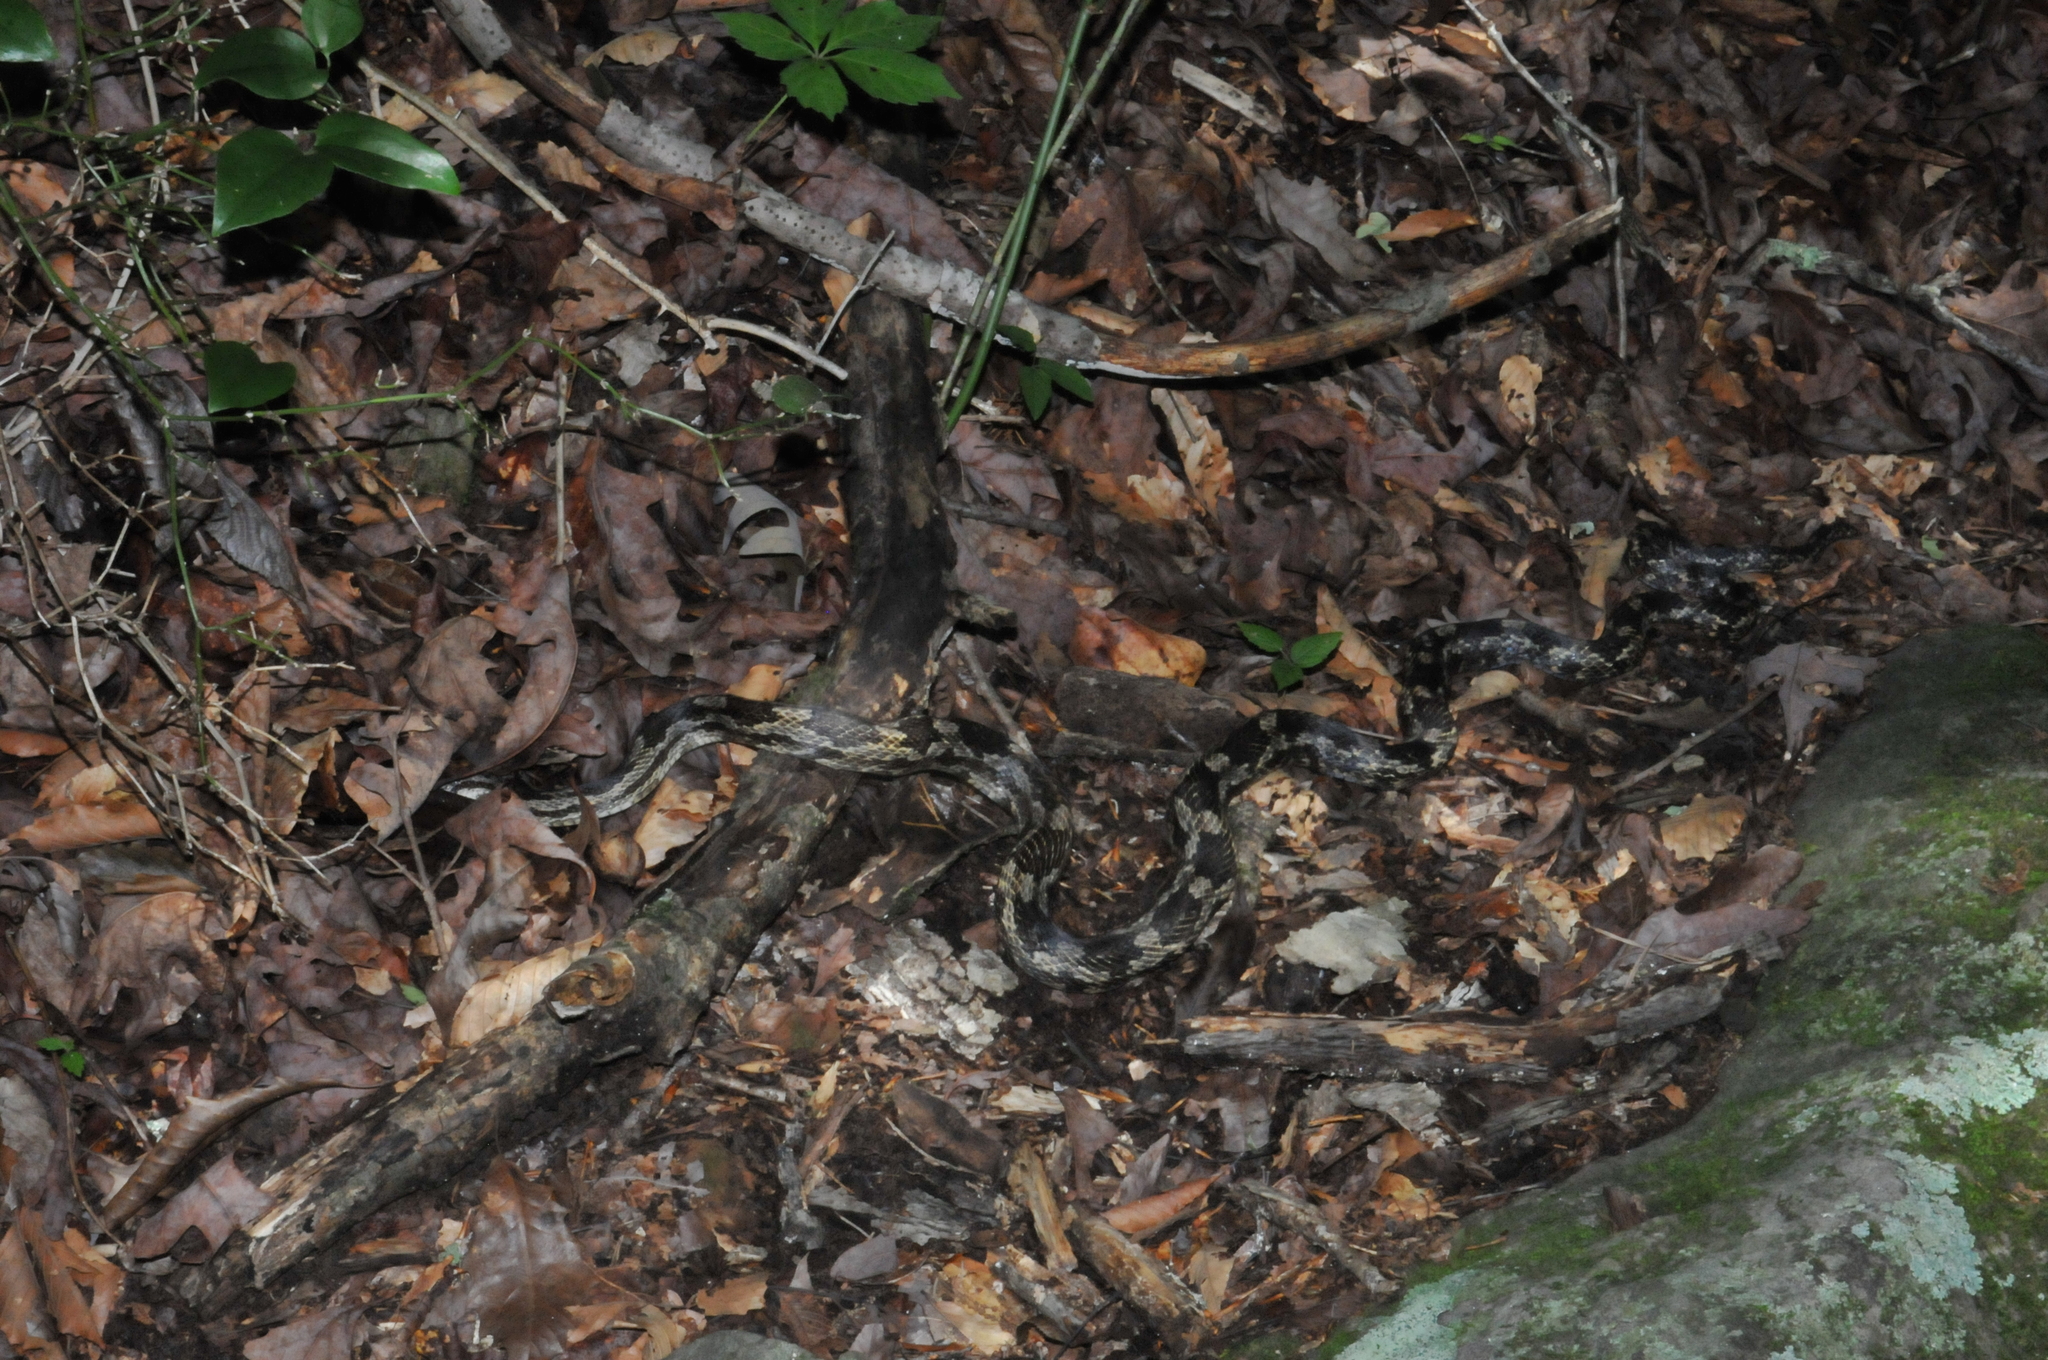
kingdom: Animalia
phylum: Chordata
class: Squamata
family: Colubridae
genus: Pantherophis
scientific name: Pantherophis spiloides
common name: Gray rat snake
